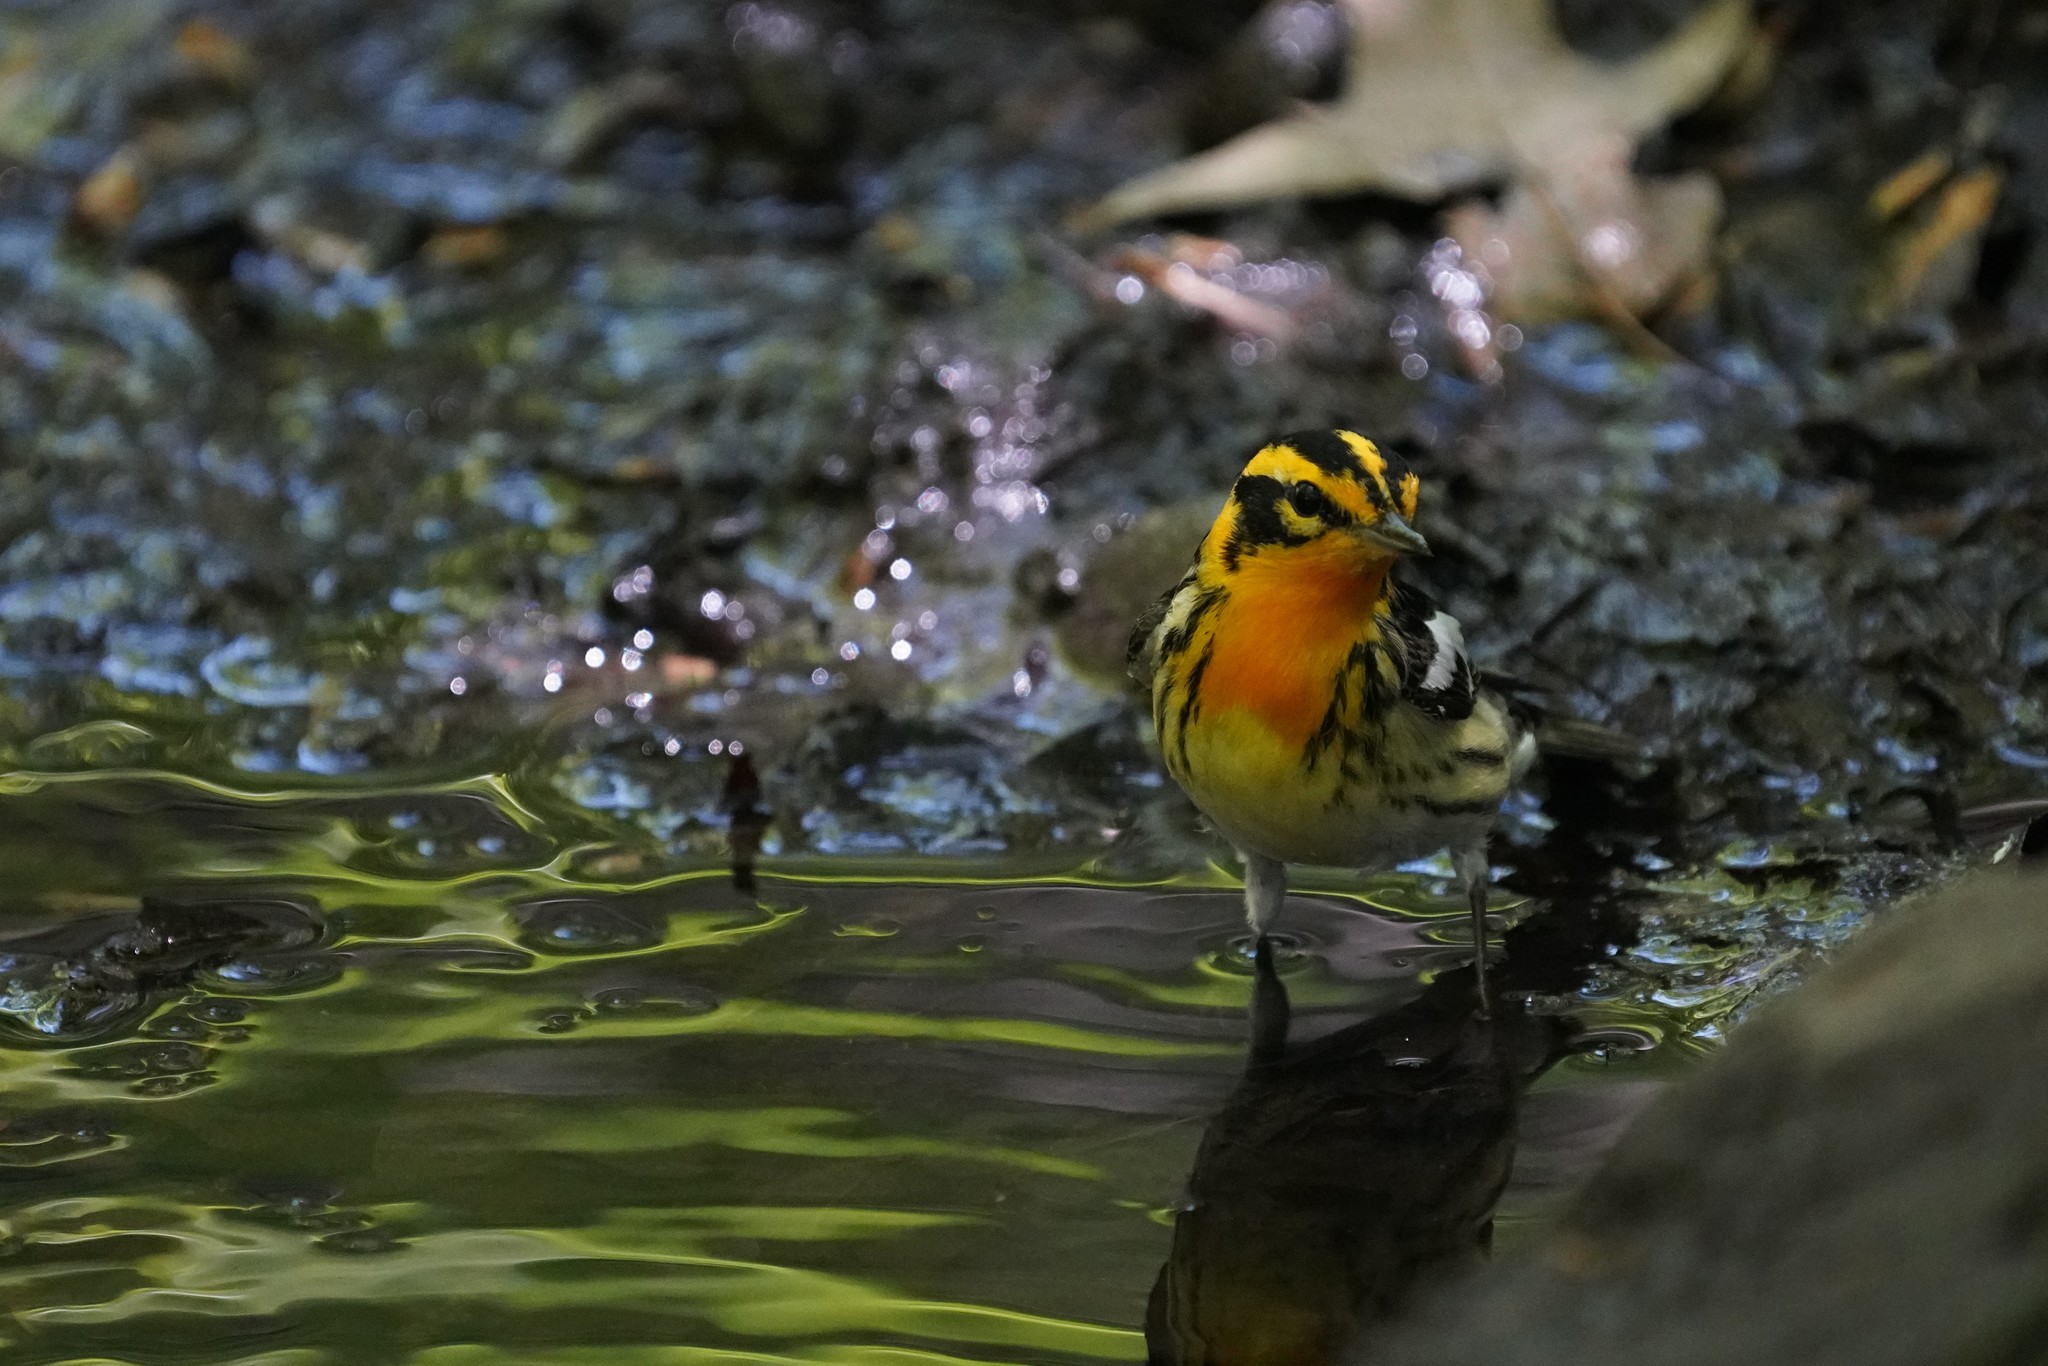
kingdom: Animalia
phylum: Chordata
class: Aves
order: Passeriformes
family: Parulidae
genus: Setophaga
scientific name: Setophaga fusca
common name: Blackburnian warbler
